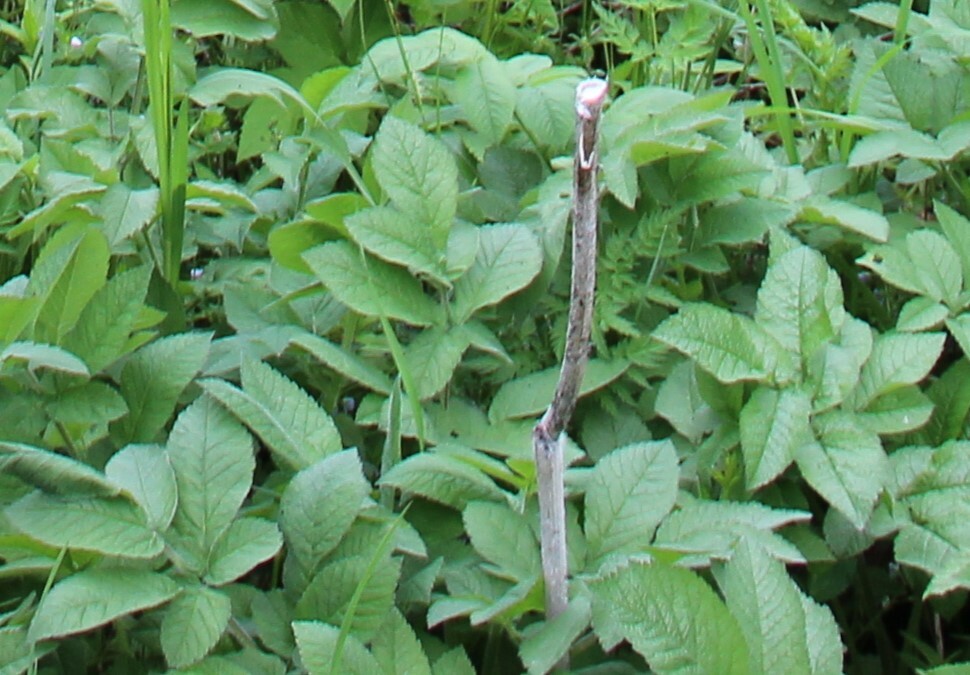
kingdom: Plantae
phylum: Tracheophyta
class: Magnoliopsida
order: Apiales
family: Apiaceae
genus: Chaerophyllum
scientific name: Chaerophyllum aromaticum
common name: Broadleaf chervil
